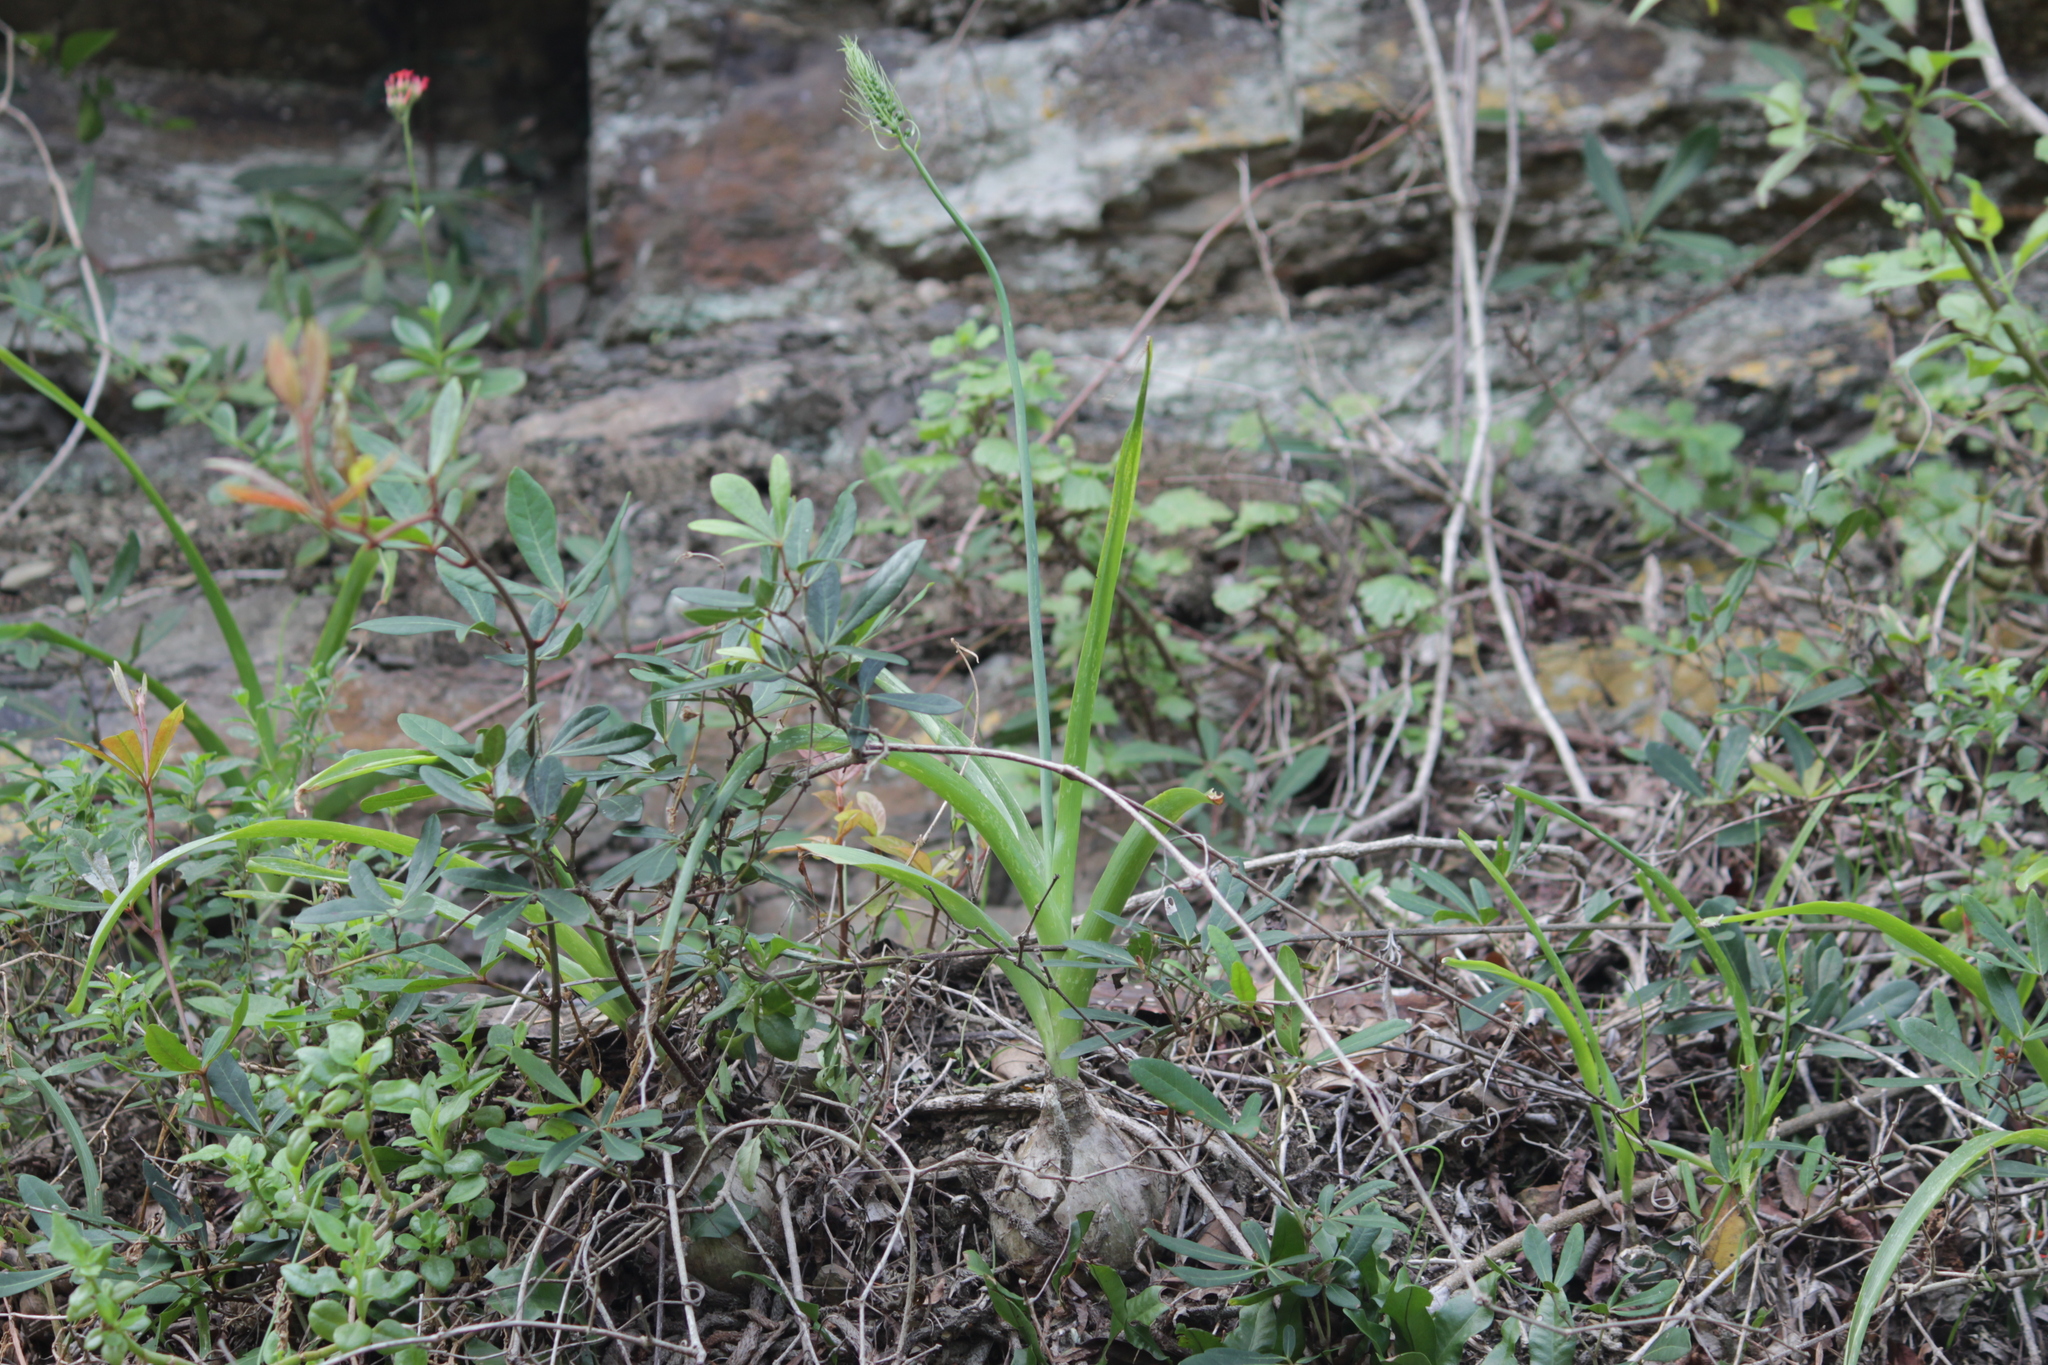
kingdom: Plantae
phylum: Tracheophyta
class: Liliopsida
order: Asparagales
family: Asparagaceae
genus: Albuca
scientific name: Albuca bracteata
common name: Sea-onion
